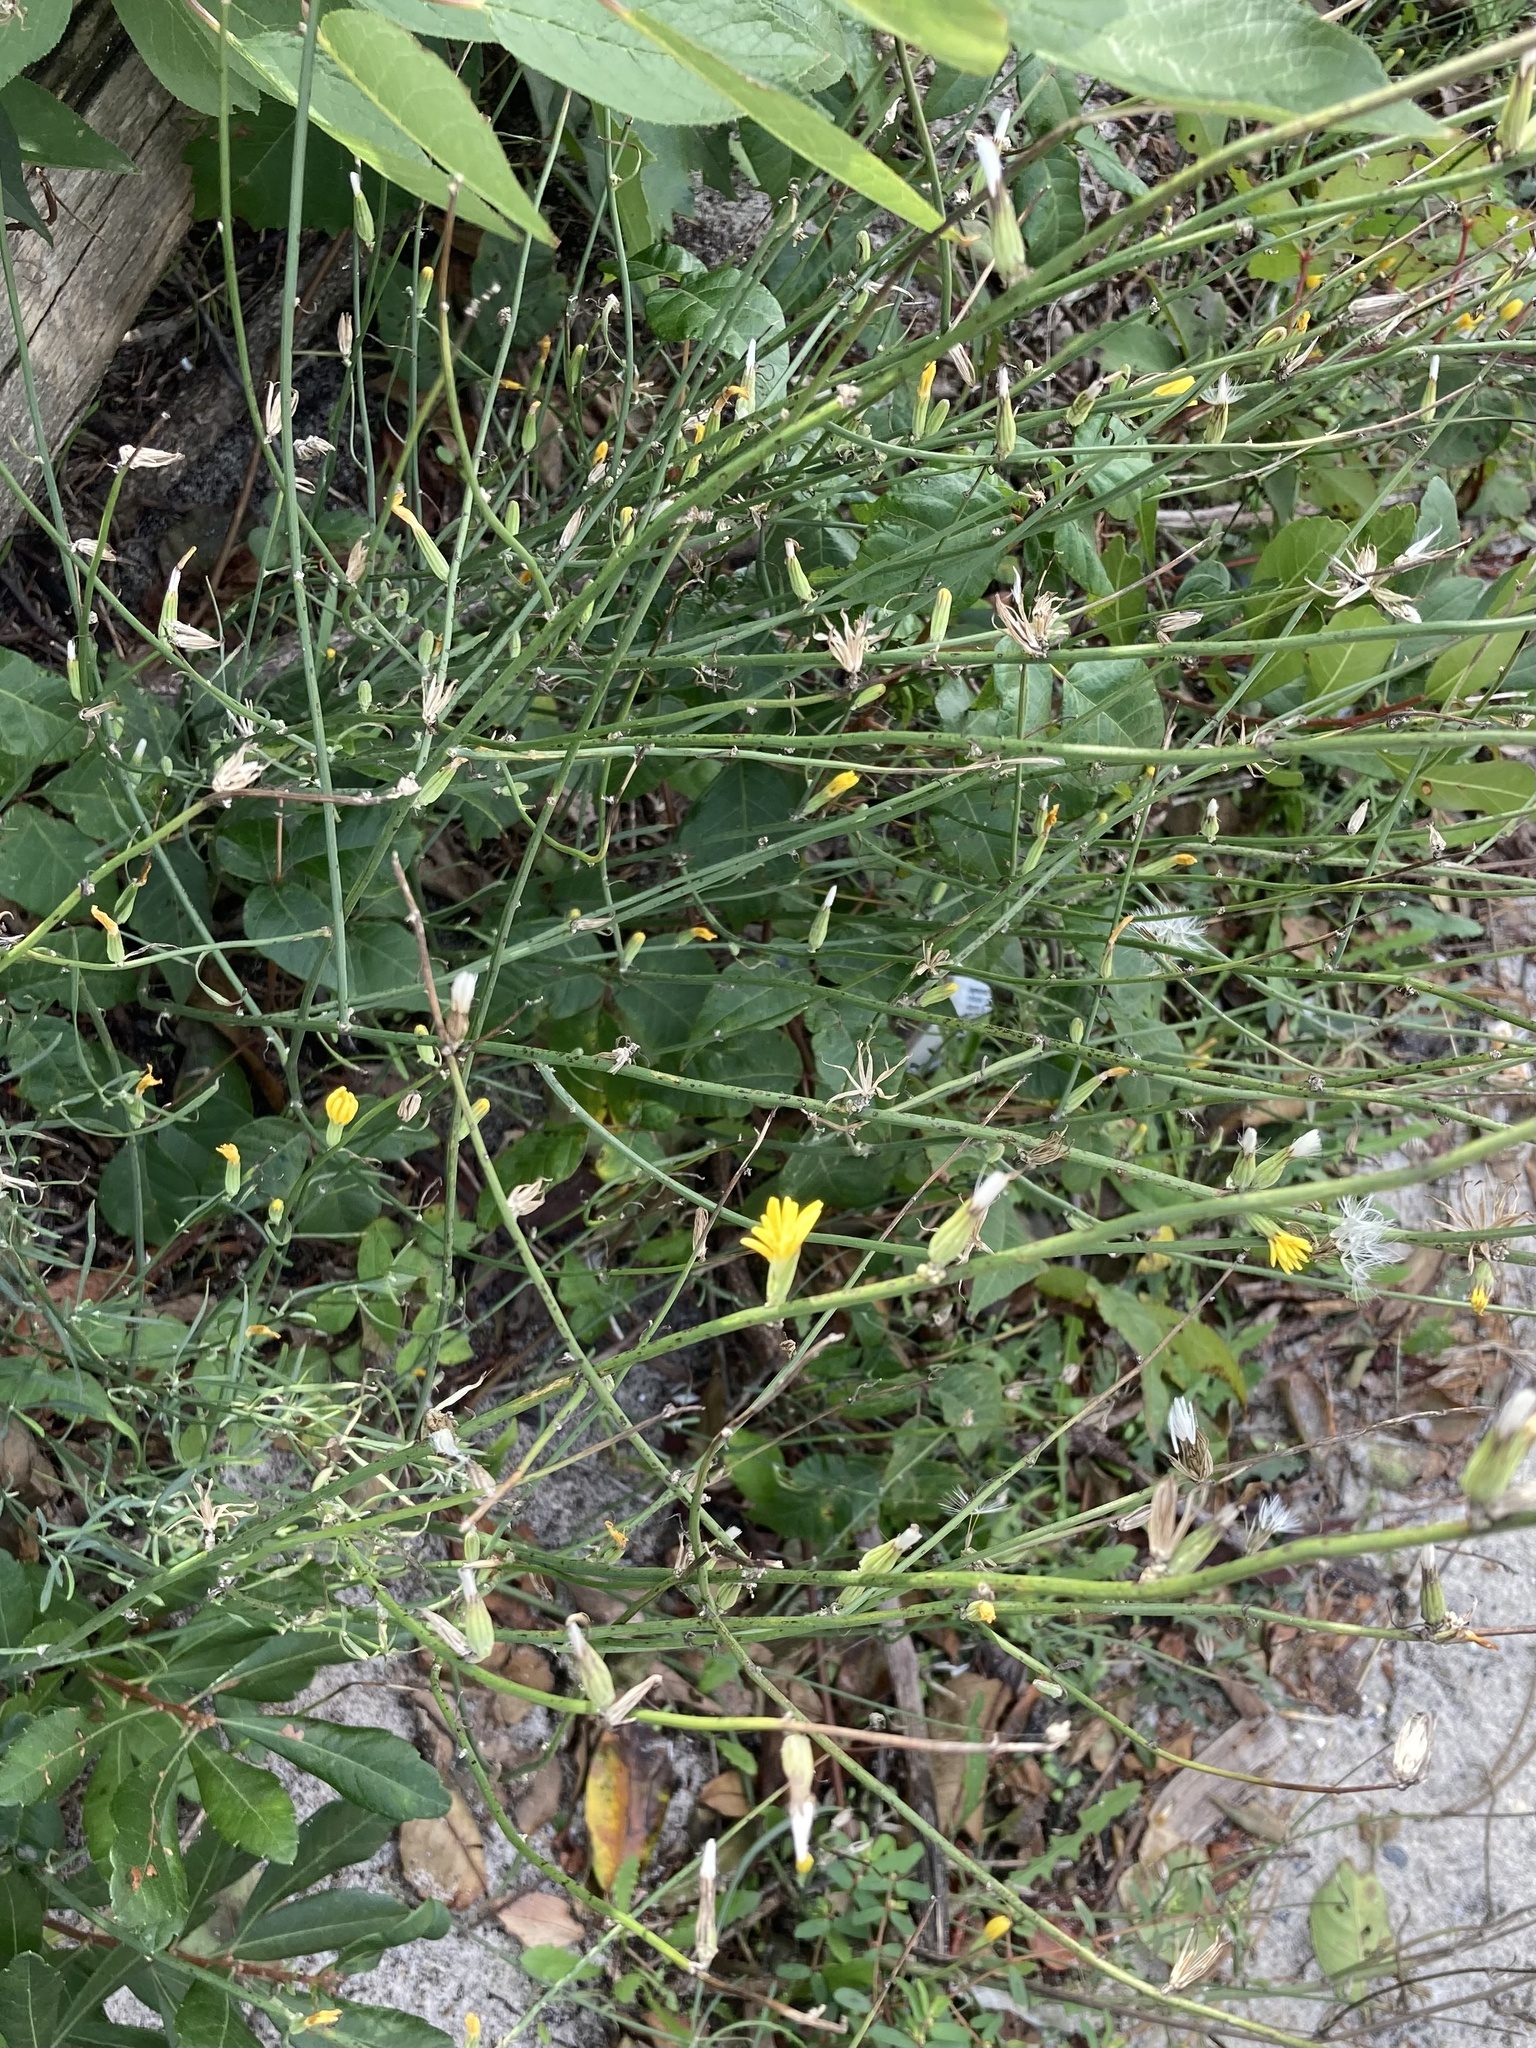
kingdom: Plantae
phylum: Tracheophyta
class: Magnoliopsida
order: Asterales
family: Asteraceae
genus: Chondrilla
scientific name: Chondrilla juncea
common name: Skeleton weed
